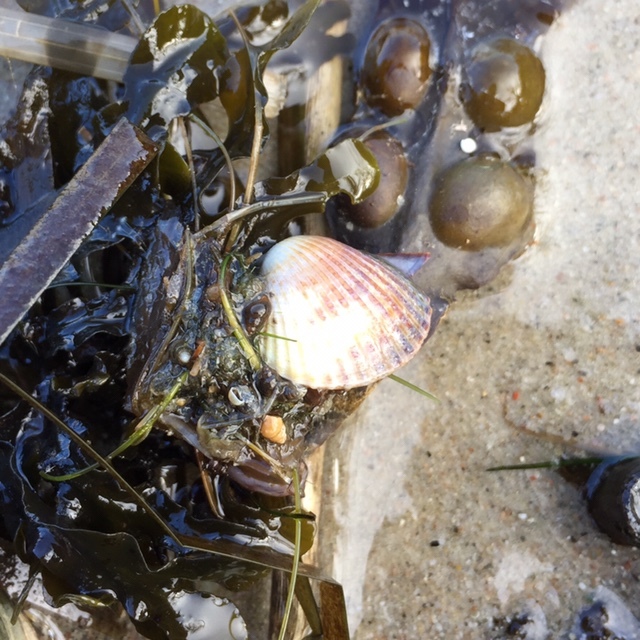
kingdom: Animalia
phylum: Mollusca
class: Bivalvia
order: Cardiida
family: Cardiidae
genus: Cerastoderma
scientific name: Cerastoderma edule
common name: Common cockle
